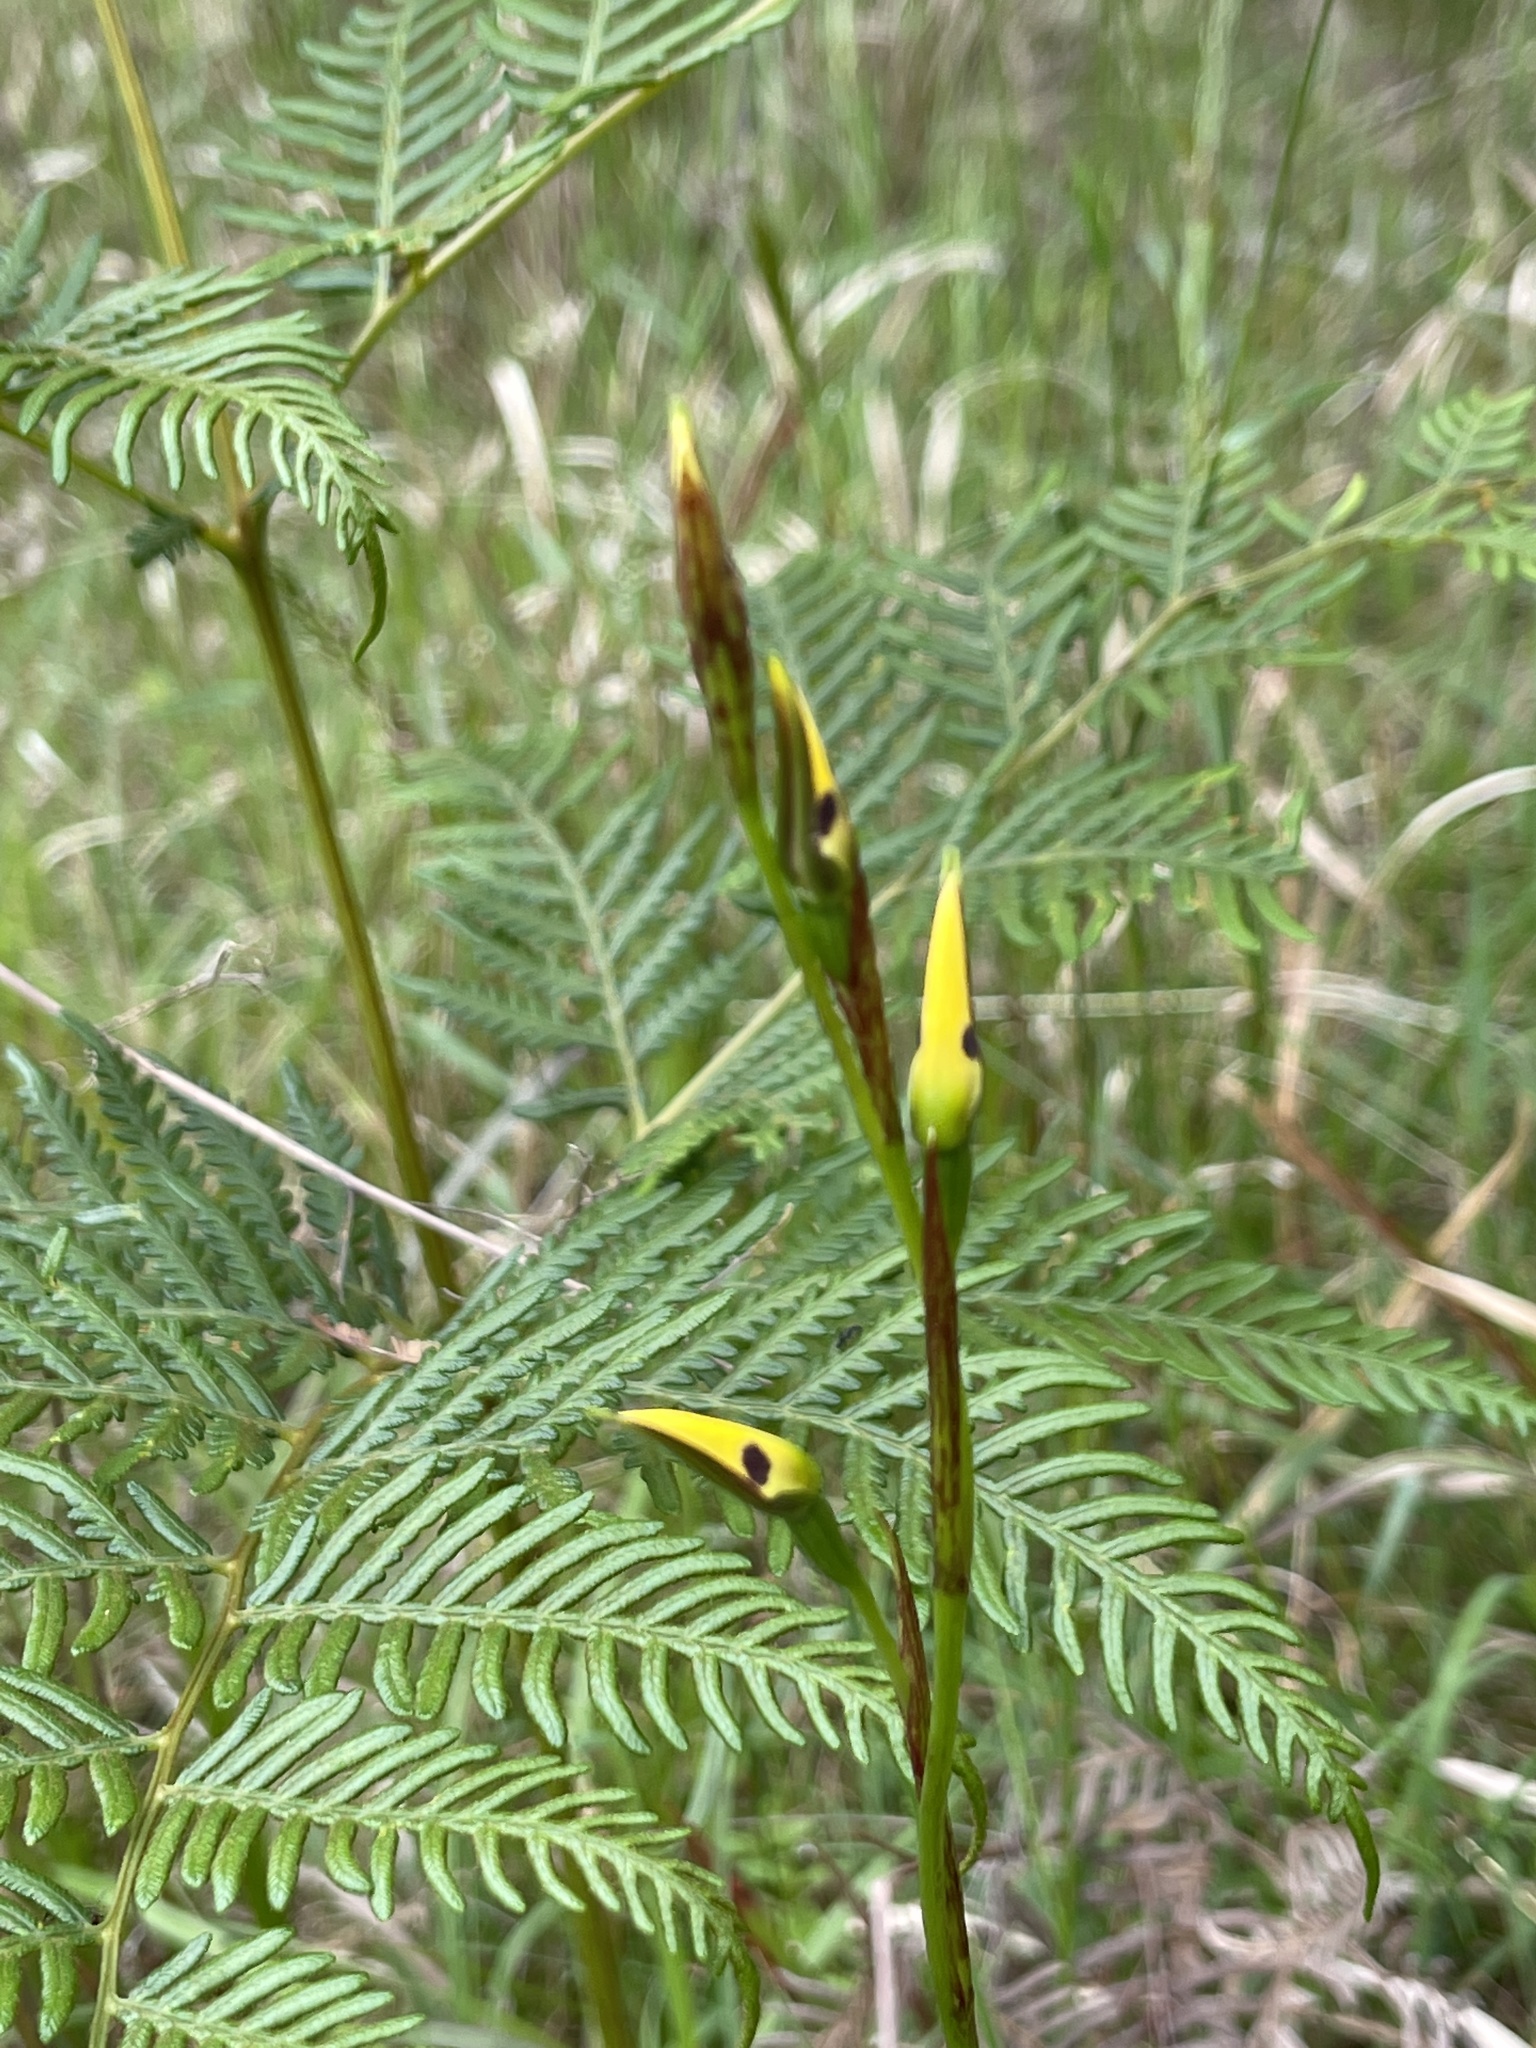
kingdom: Plantae
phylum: Tracheophyta
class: Liliopsida
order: Asparagales
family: Orchidaceae
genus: Diuris
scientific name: Diuris sulphurea
